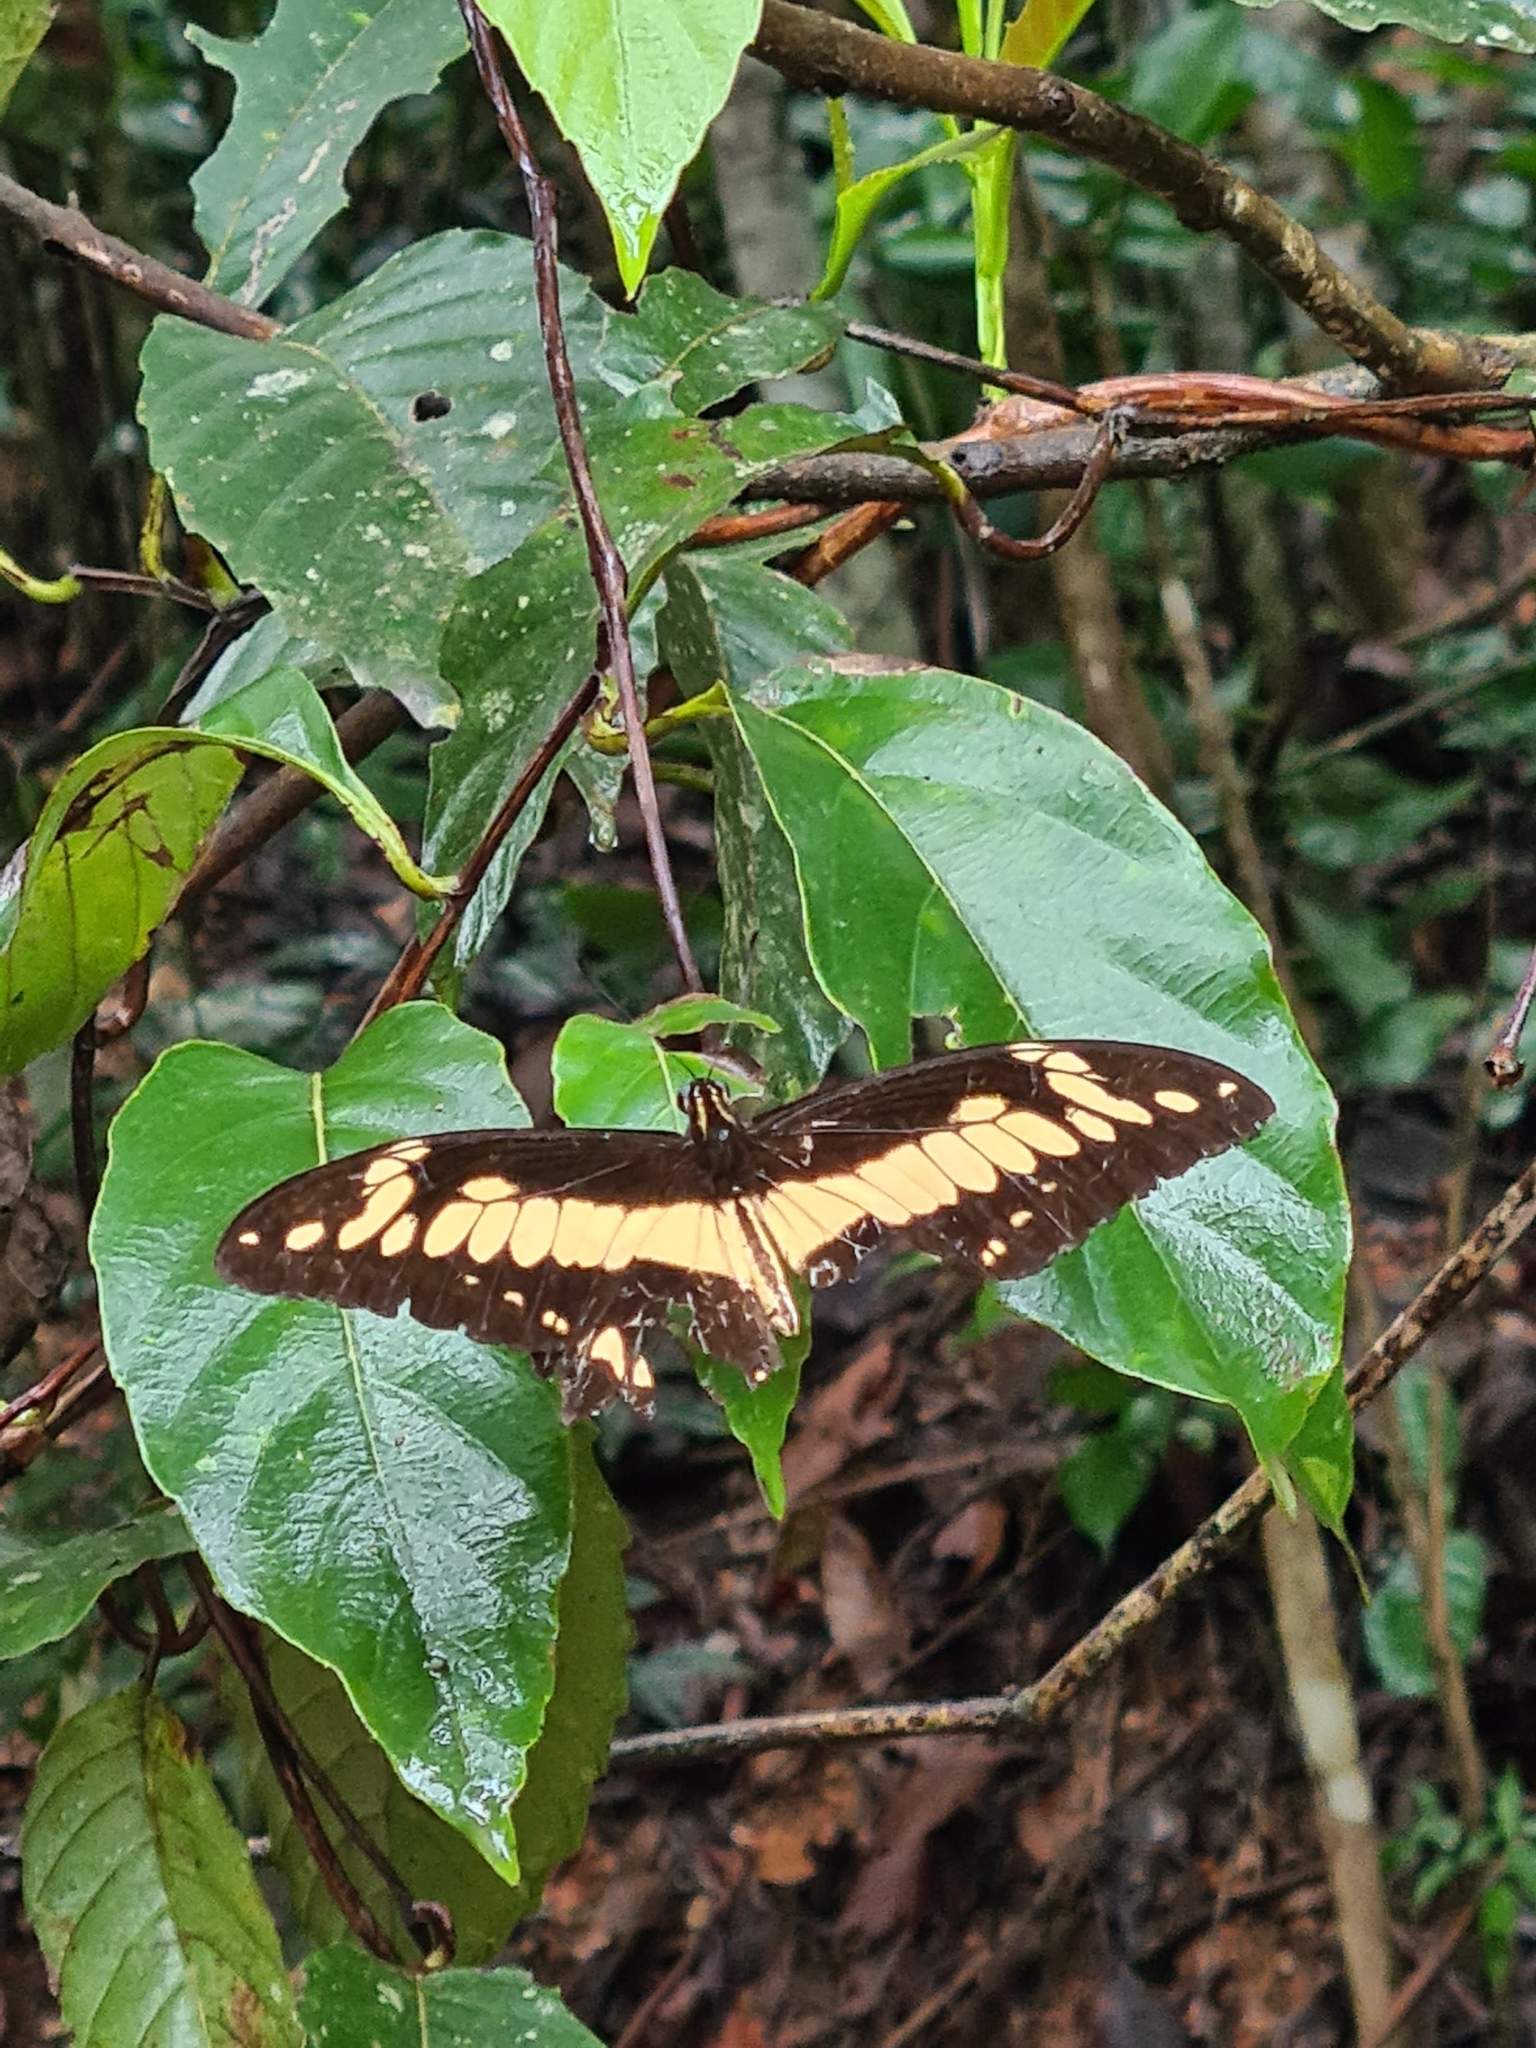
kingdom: Animalia
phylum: Arthropoda
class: Insecta
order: Lepidoptera
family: Papilionidae
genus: Papilio
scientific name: Papilio thoas
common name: King swallowtail
